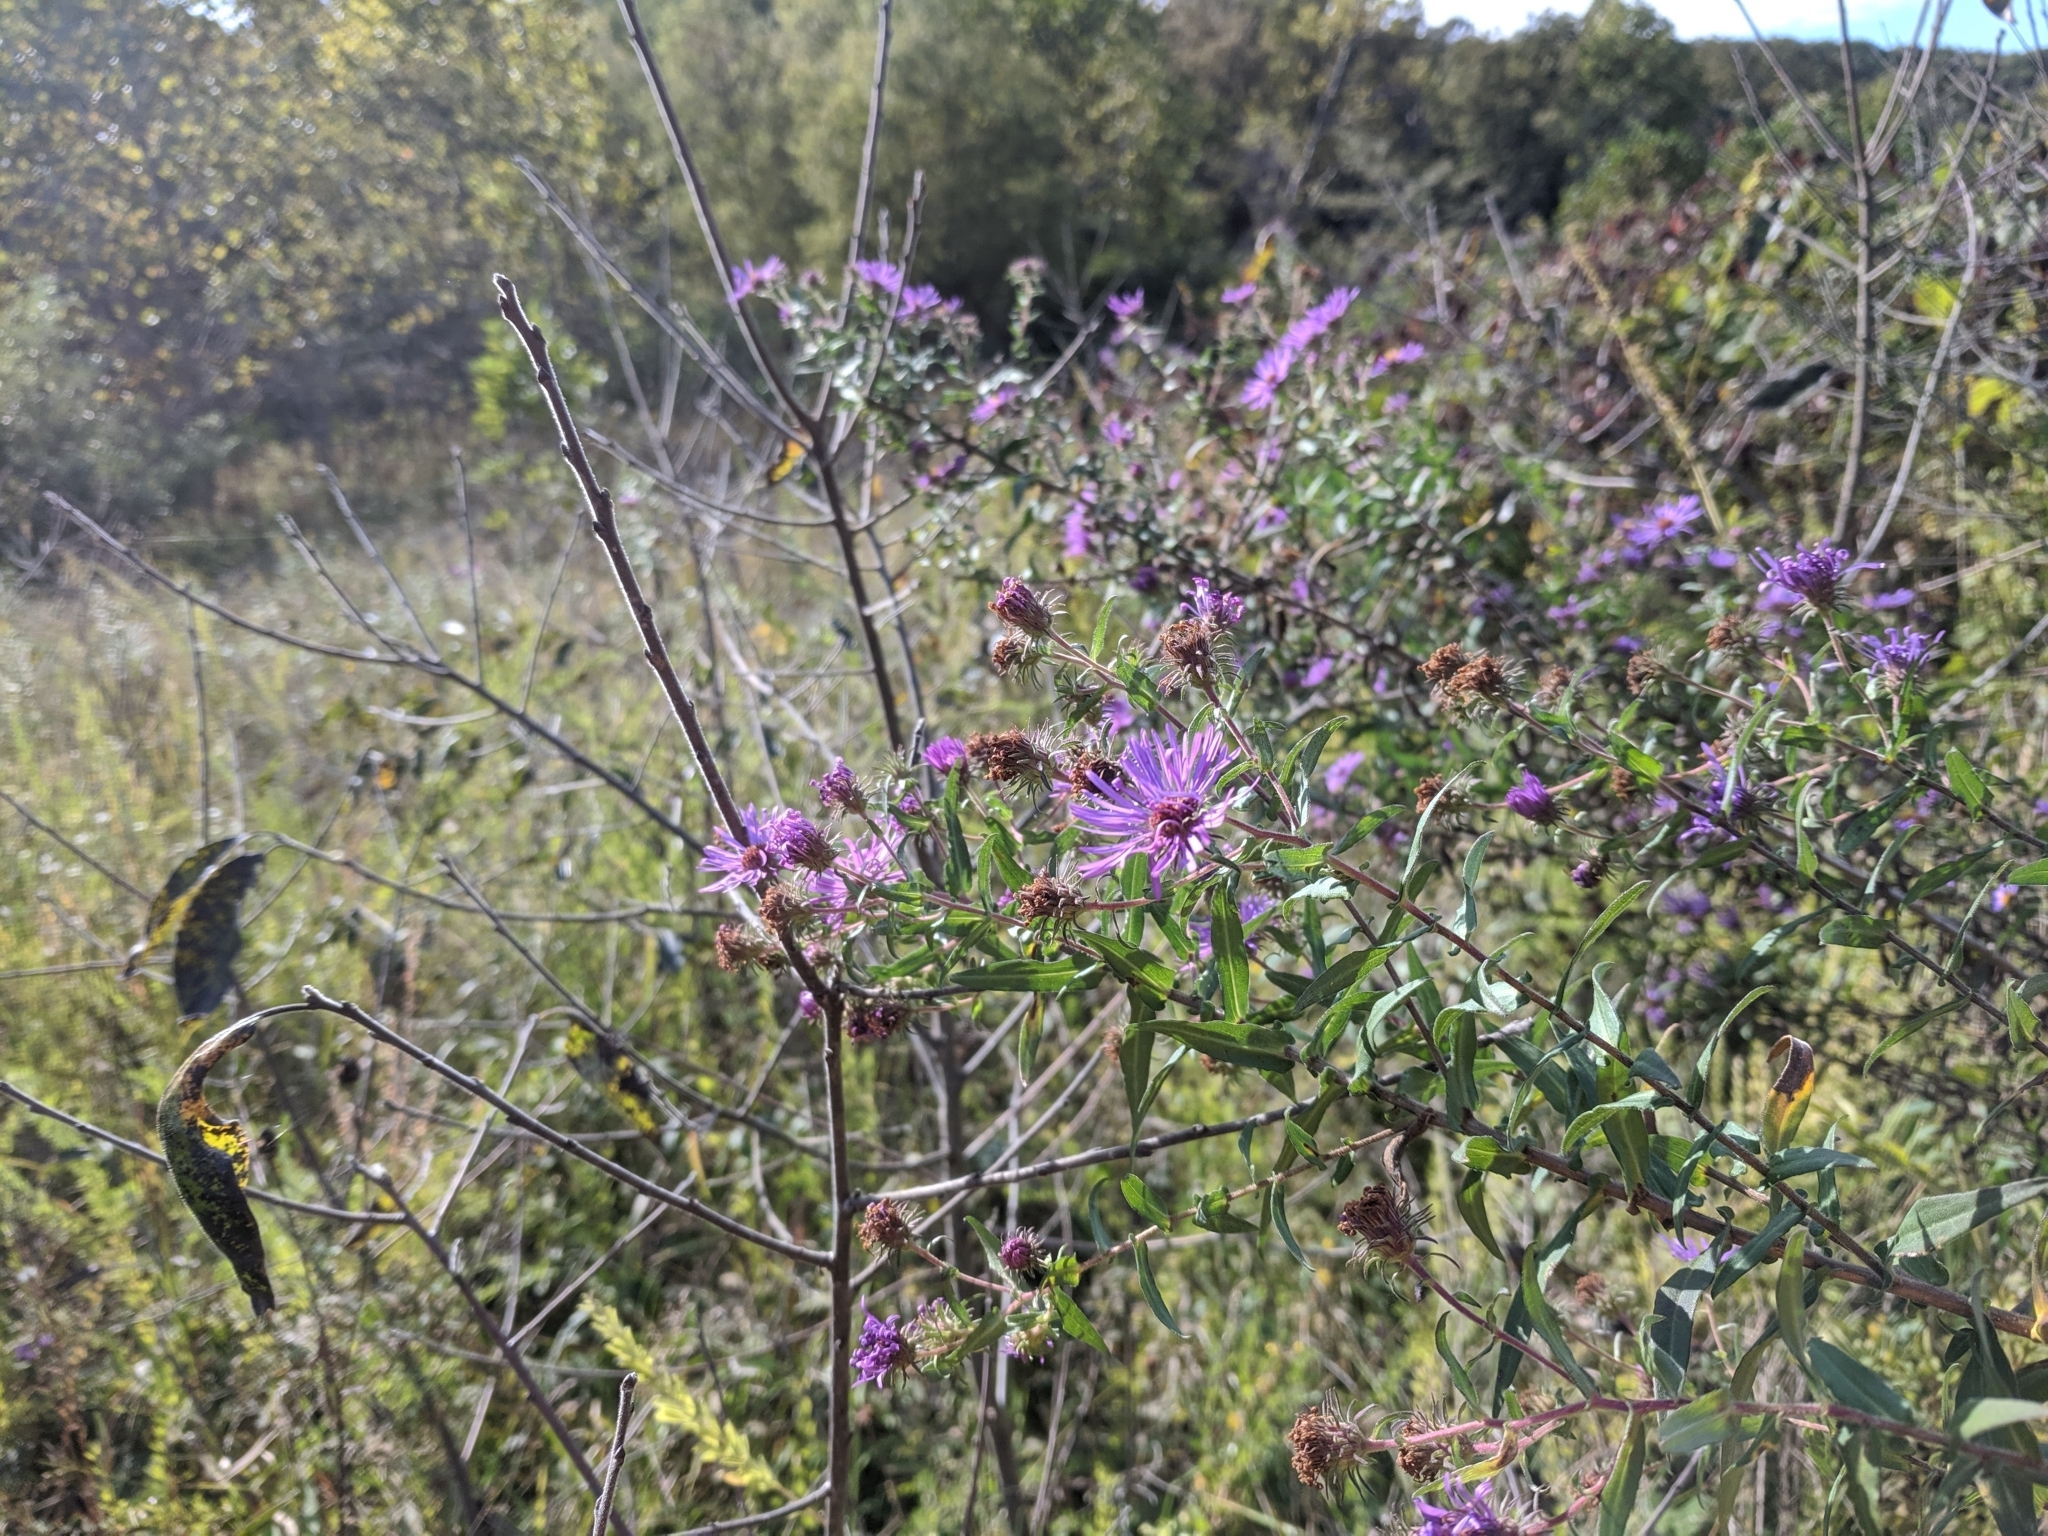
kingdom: Plantae
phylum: Tracheophyta
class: Magnoliopsida
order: Asterales
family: Asteraceae
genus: Symphyotrichum
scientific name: Symphyotrichum novae-angliae
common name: Michaelmas daisy
